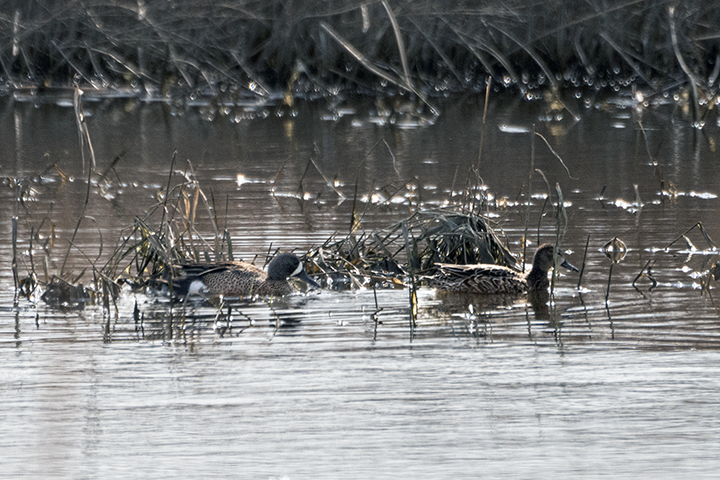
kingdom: Animalia
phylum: Chordata
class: Aves
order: Anseriformes
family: Anatidae
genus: Spatula
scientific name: Spatula discors
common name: Blue-winged teal
